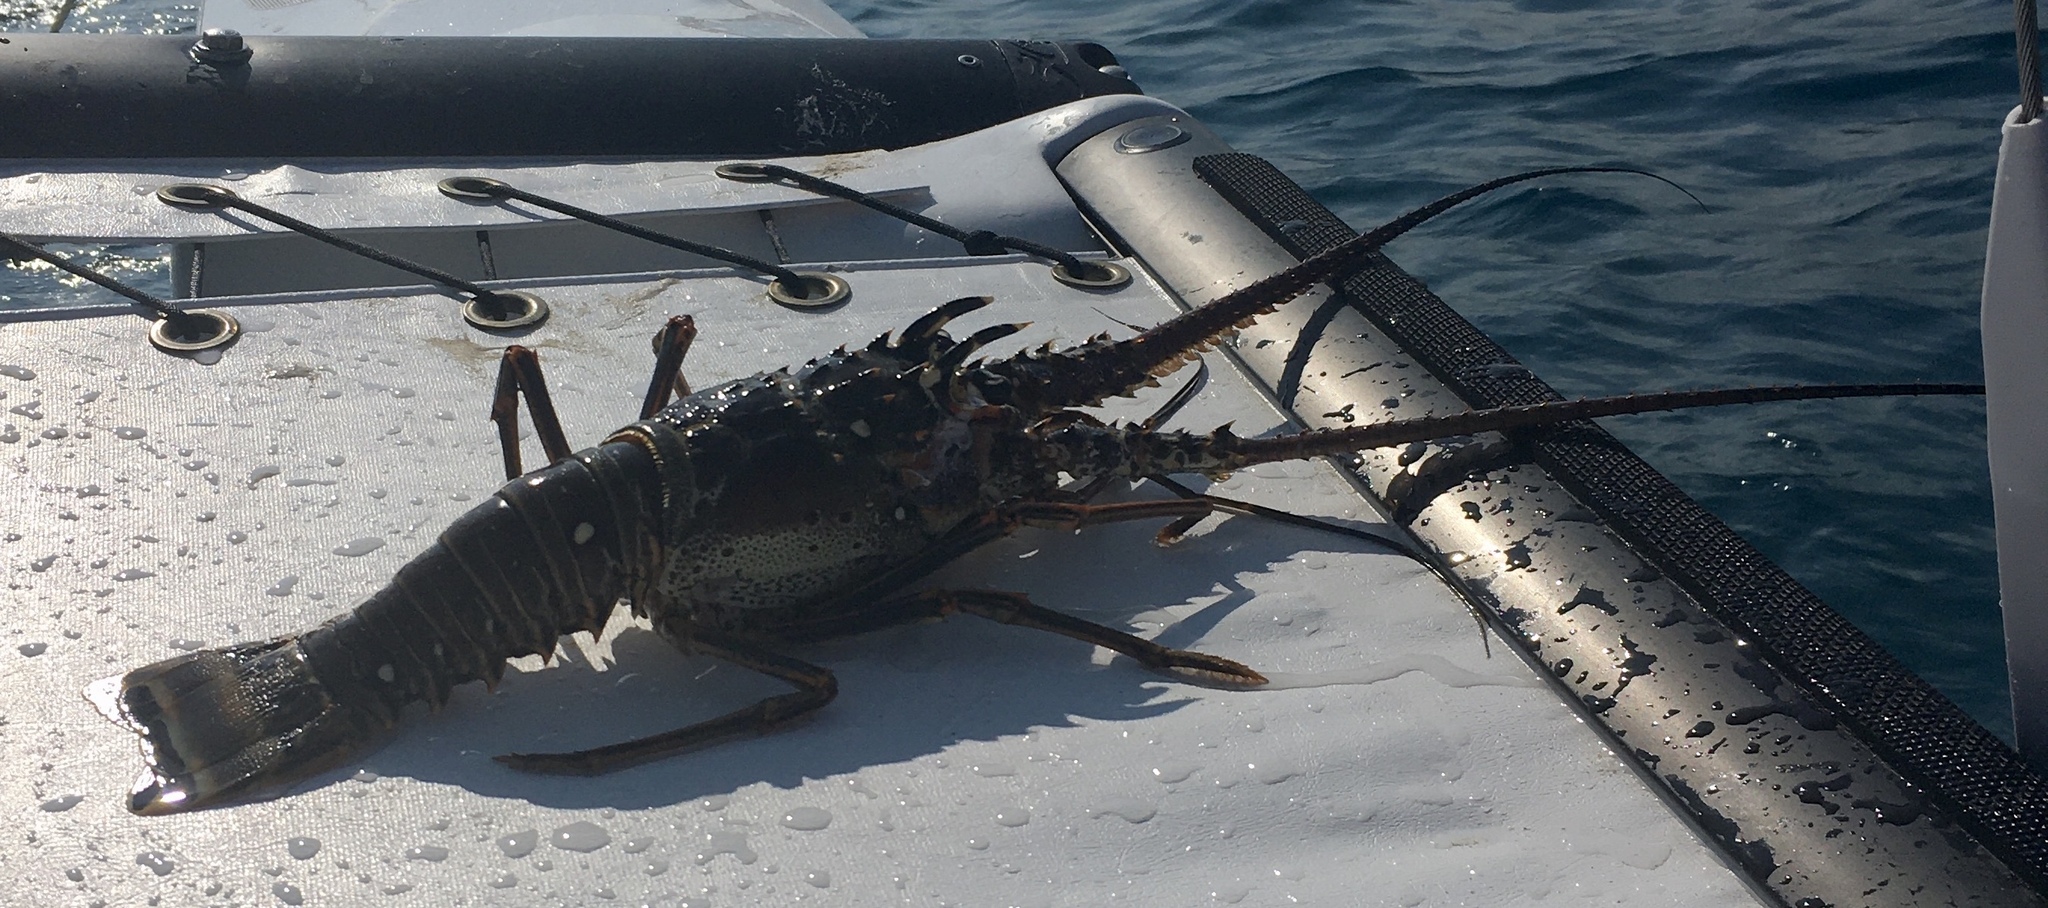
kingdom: Animalia
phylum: Arthropoda
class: Malacostraca
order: Decapoda
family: Palinuridae
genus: Panulirus
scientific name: Panulirus argus
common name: Caribbean spiny lobster
